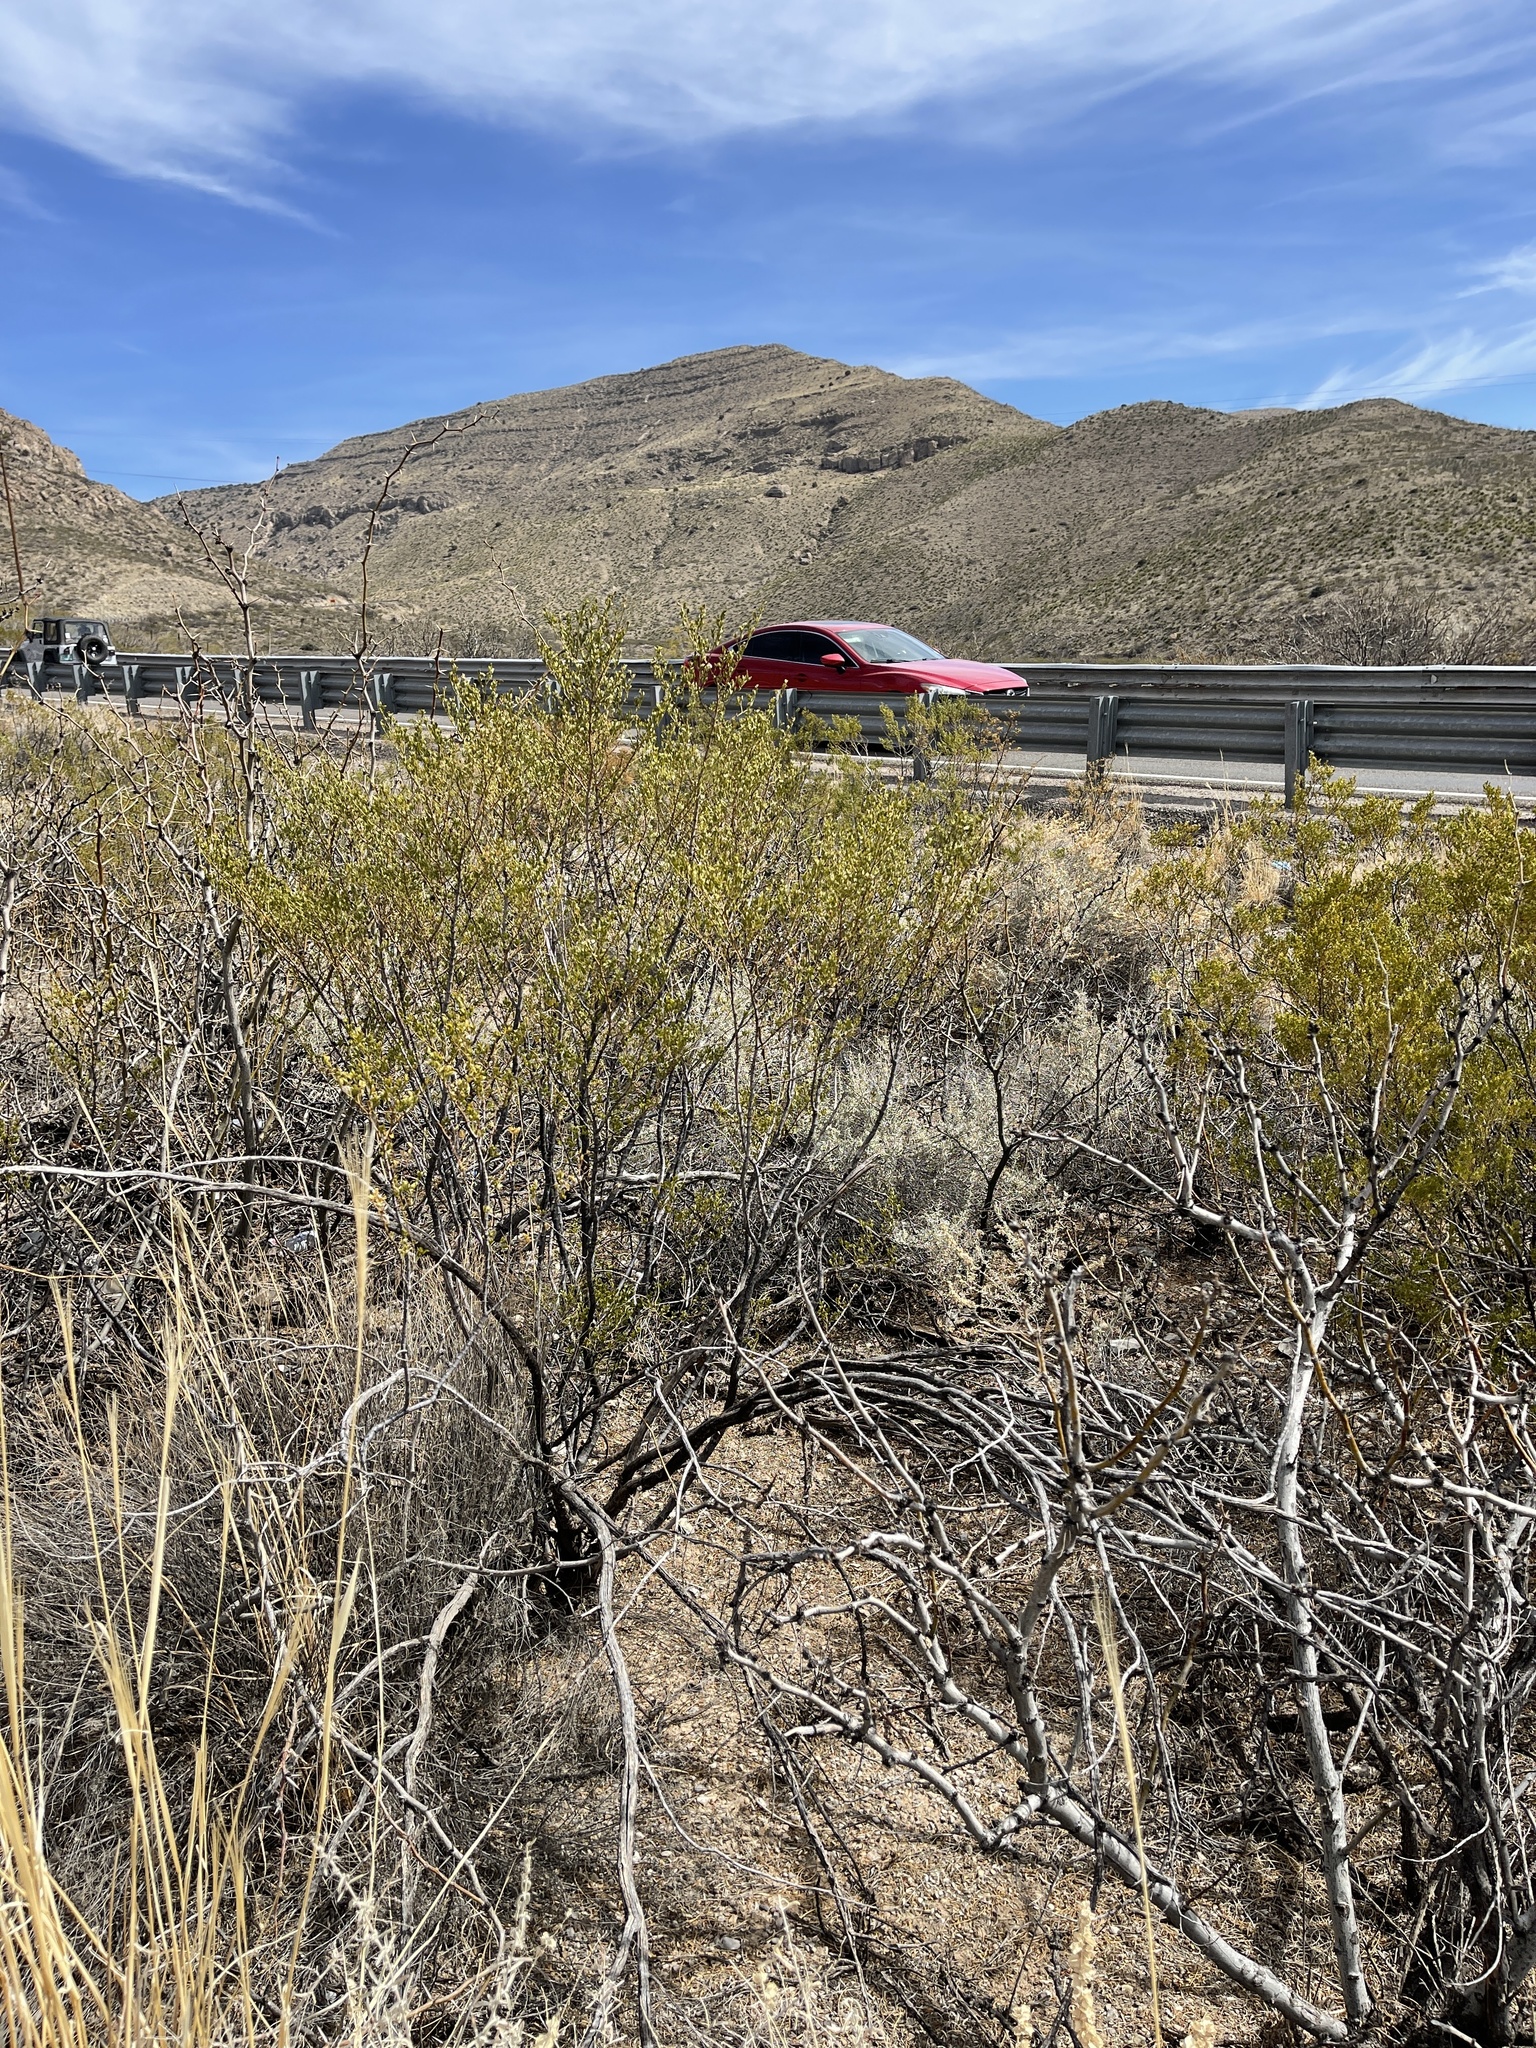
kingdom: Plantae
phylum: Tracheophyta
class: Magnoliopsida
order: Zygophyllales
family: Zygophyllaceae
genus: Larrea
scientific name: Larrea tridentata
